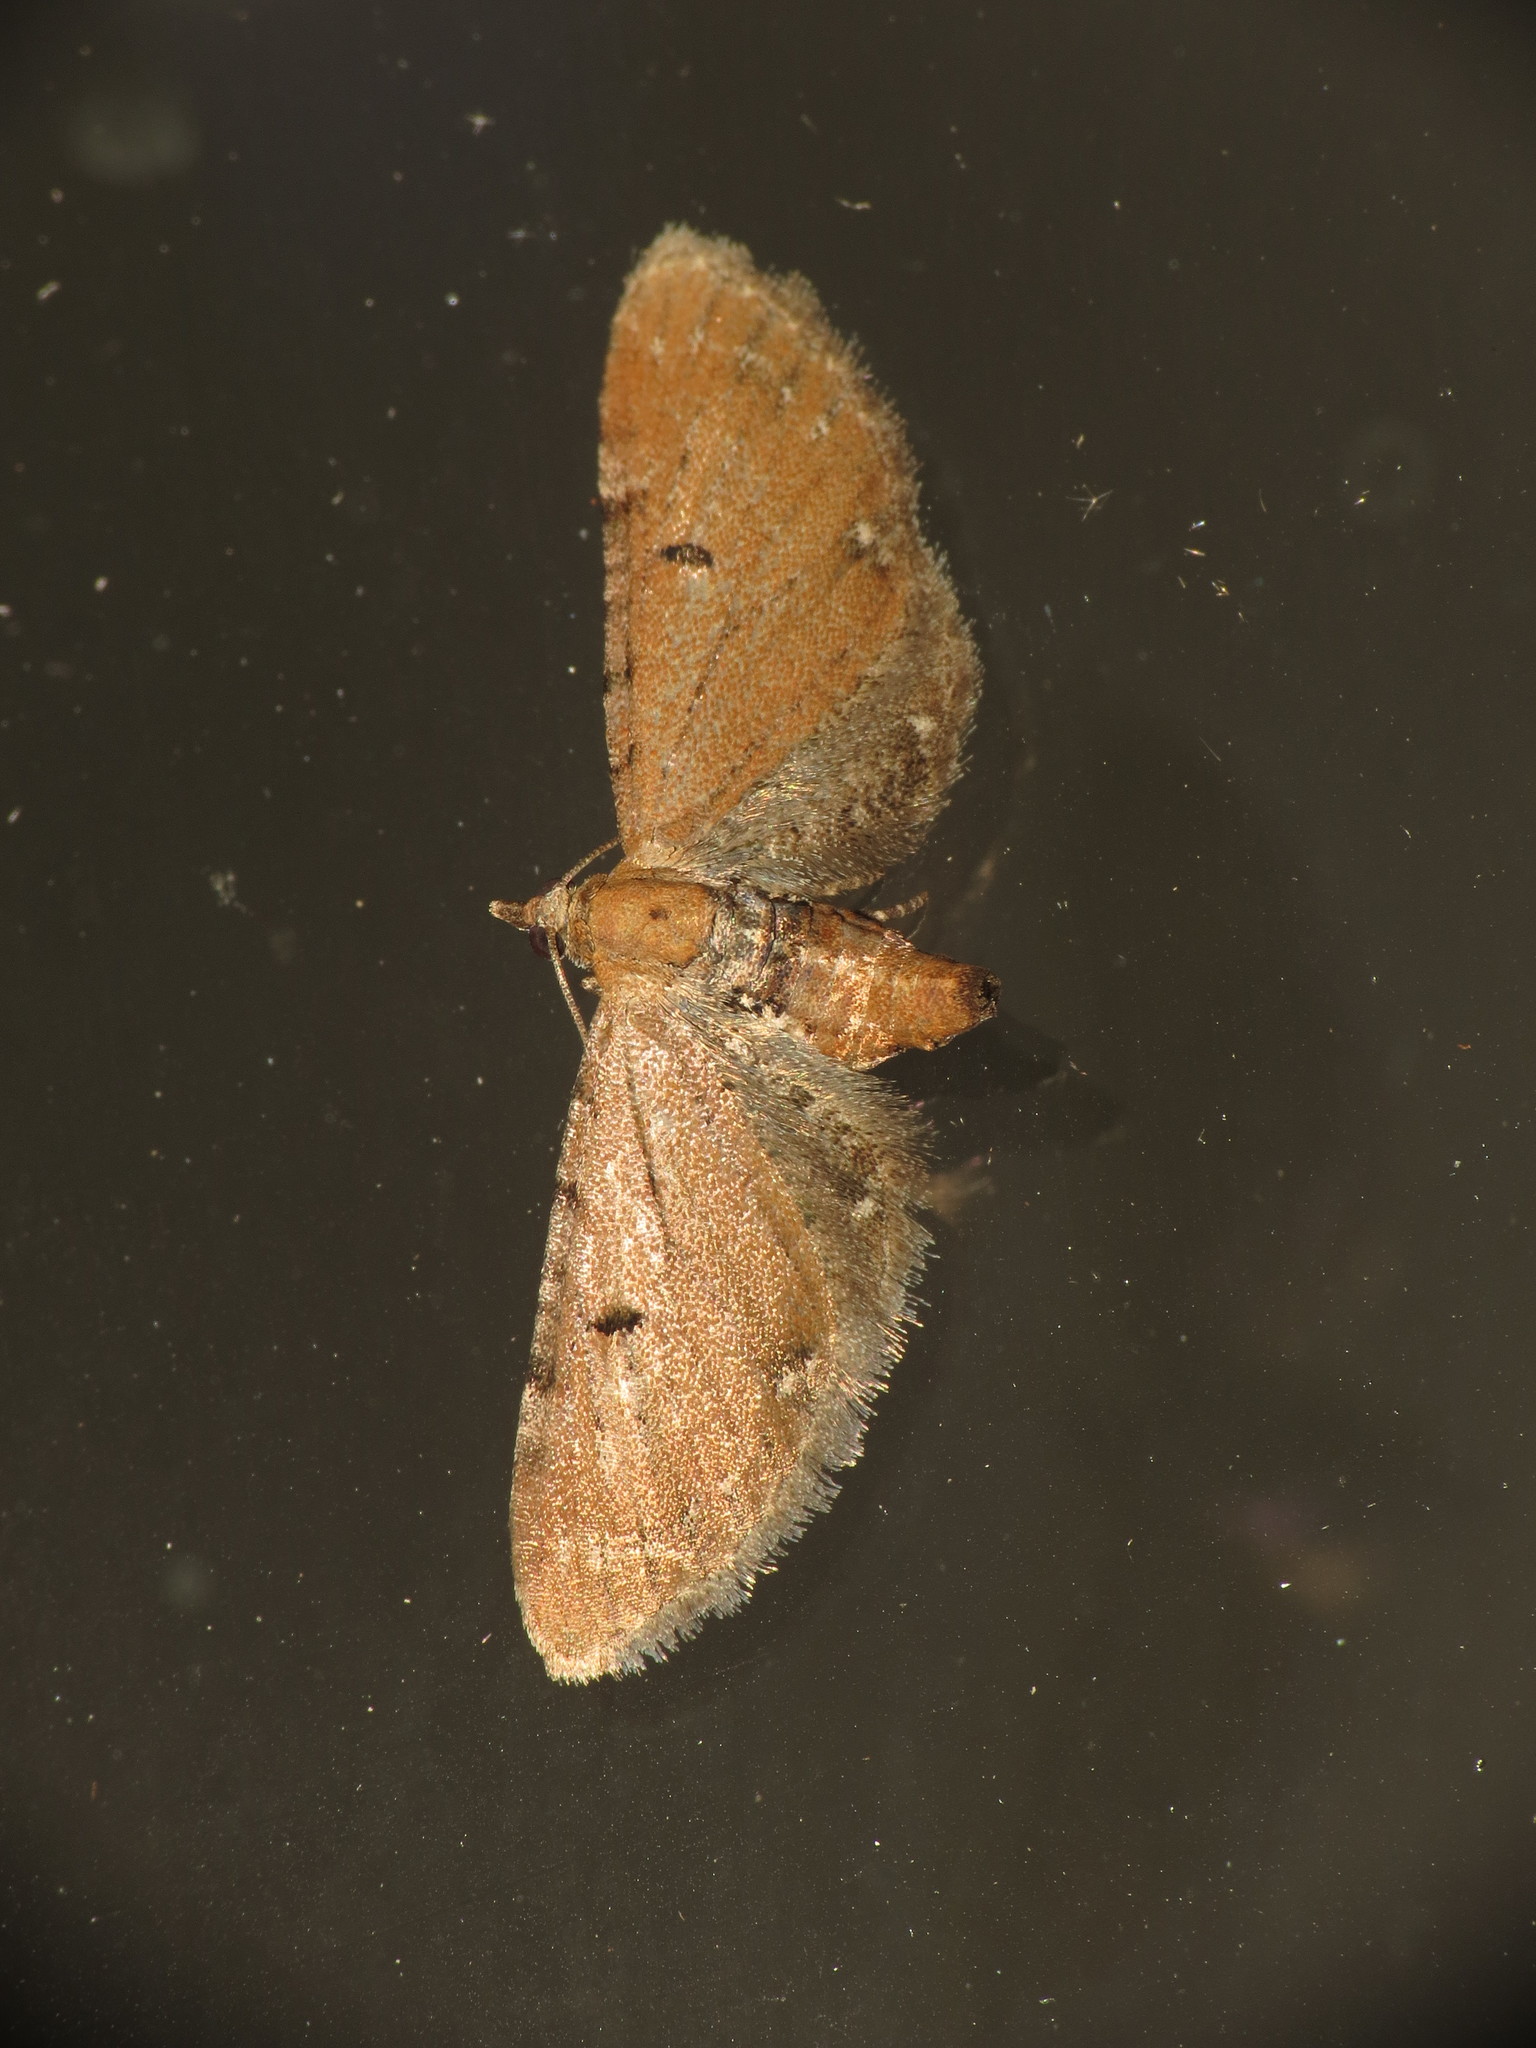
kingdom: Animalia
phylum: Arthropoda
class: Insecta
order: Lepidoptera
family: Geometridae
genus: Eupithecia
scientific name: Eupithecia absinthiata
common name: Wormwood pug
